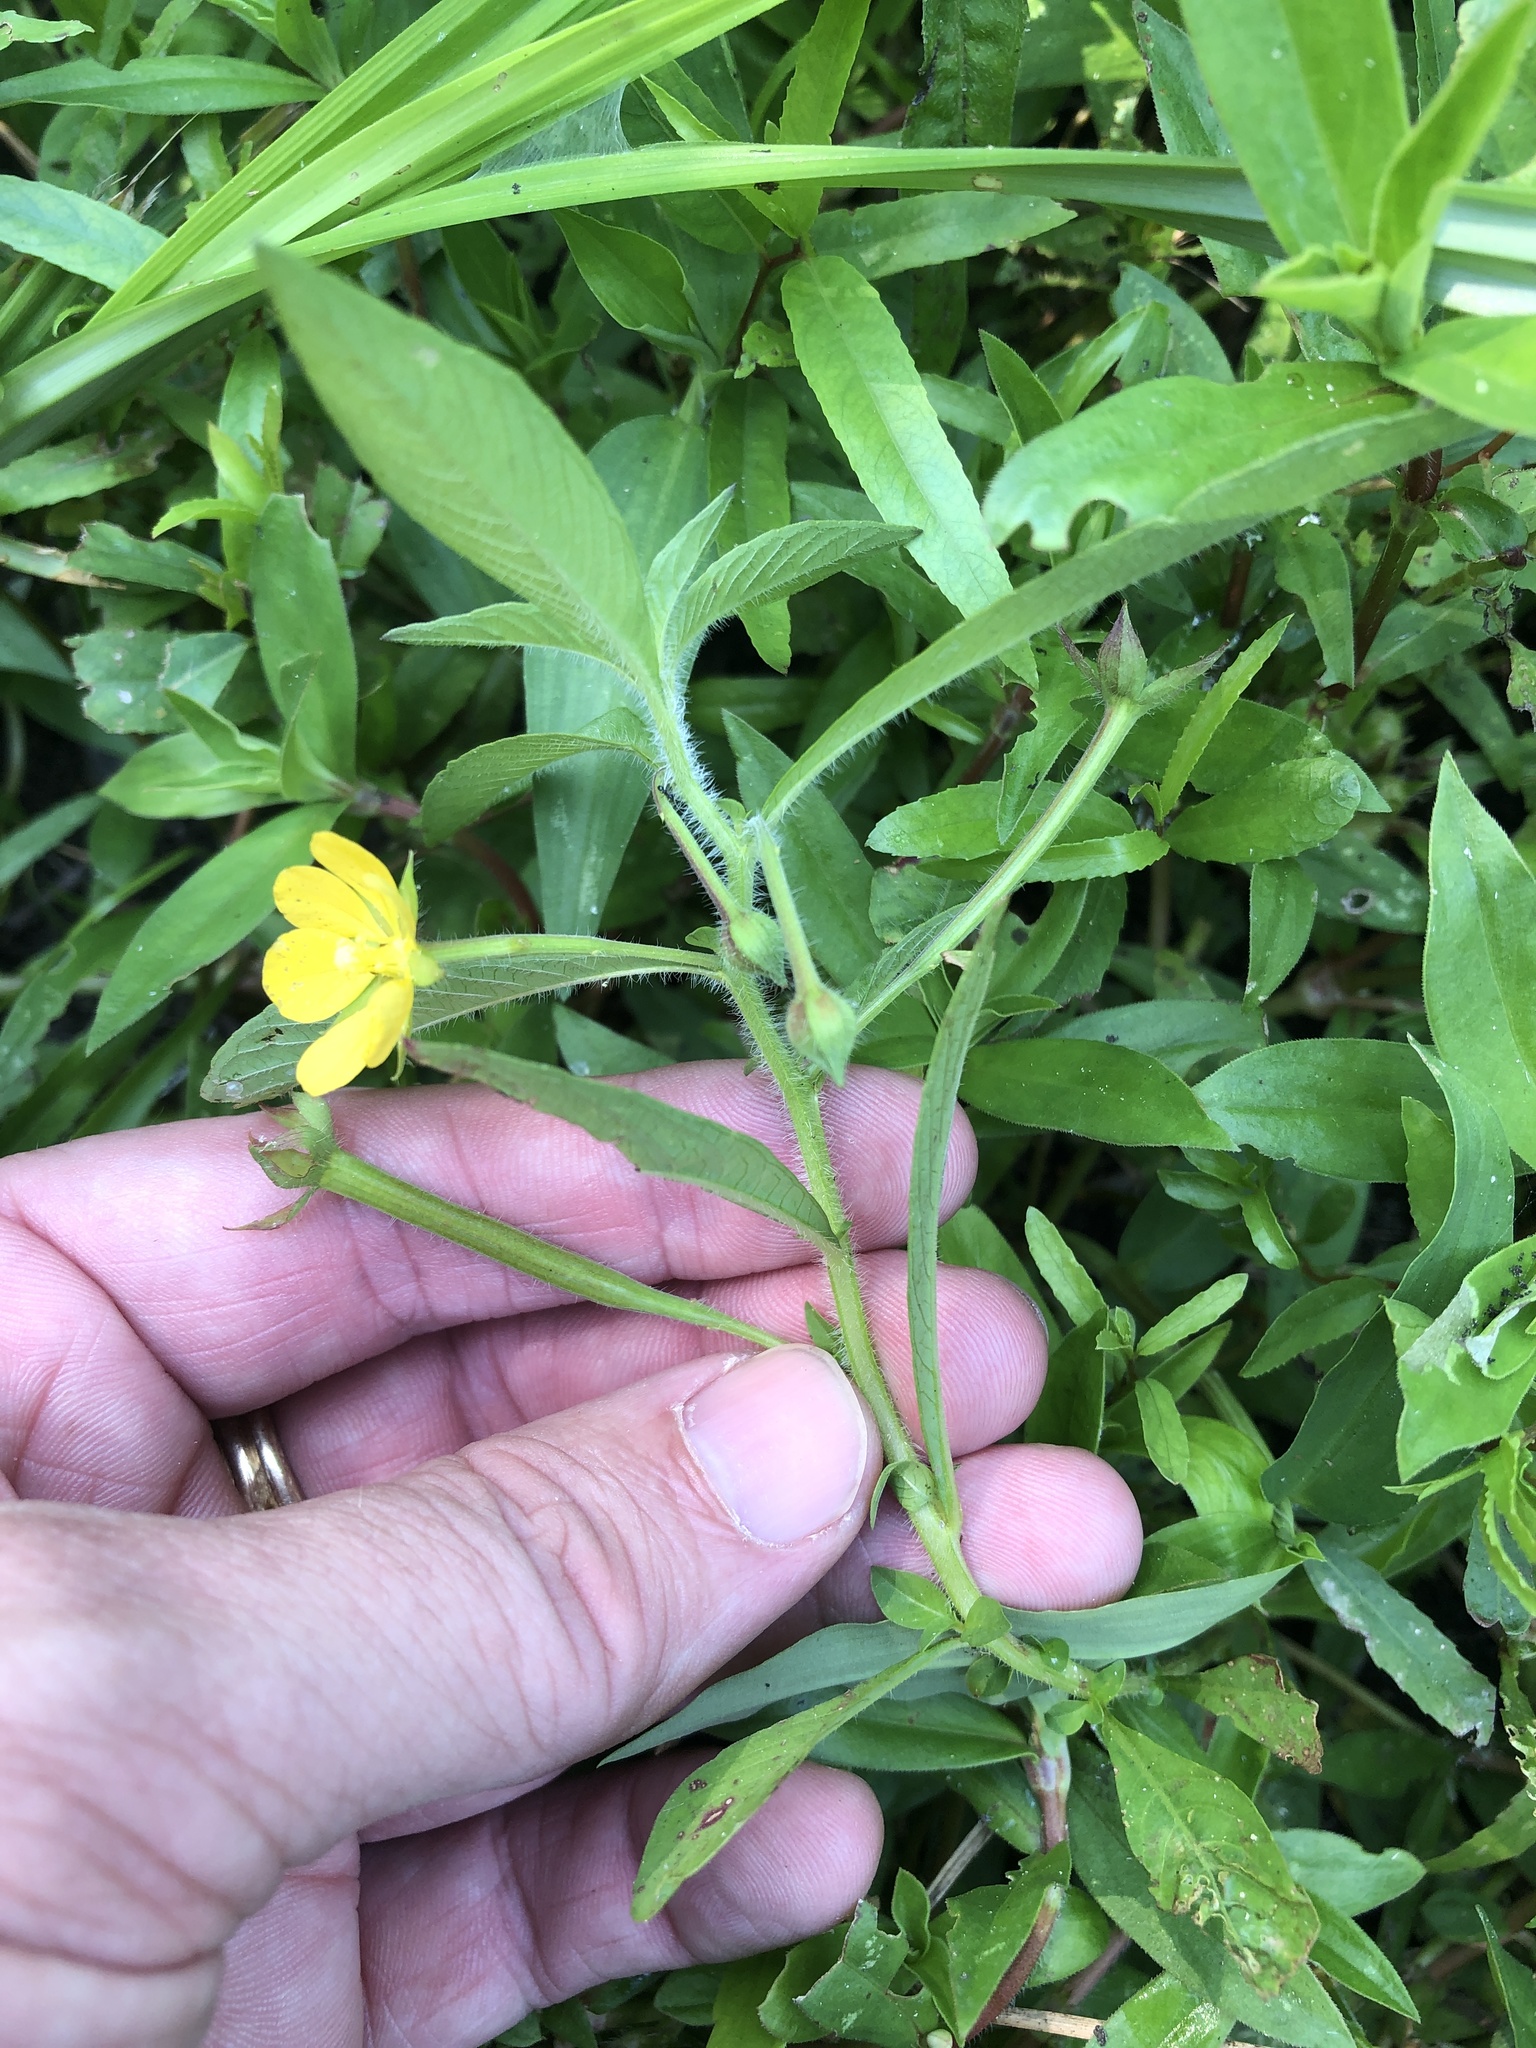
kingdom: Plantae
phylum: Tracheophyta
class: Magnoliopsida
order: Myrtales
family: Onagraceae
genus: Ludwigia
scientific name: Ludwigia leptocarpa
